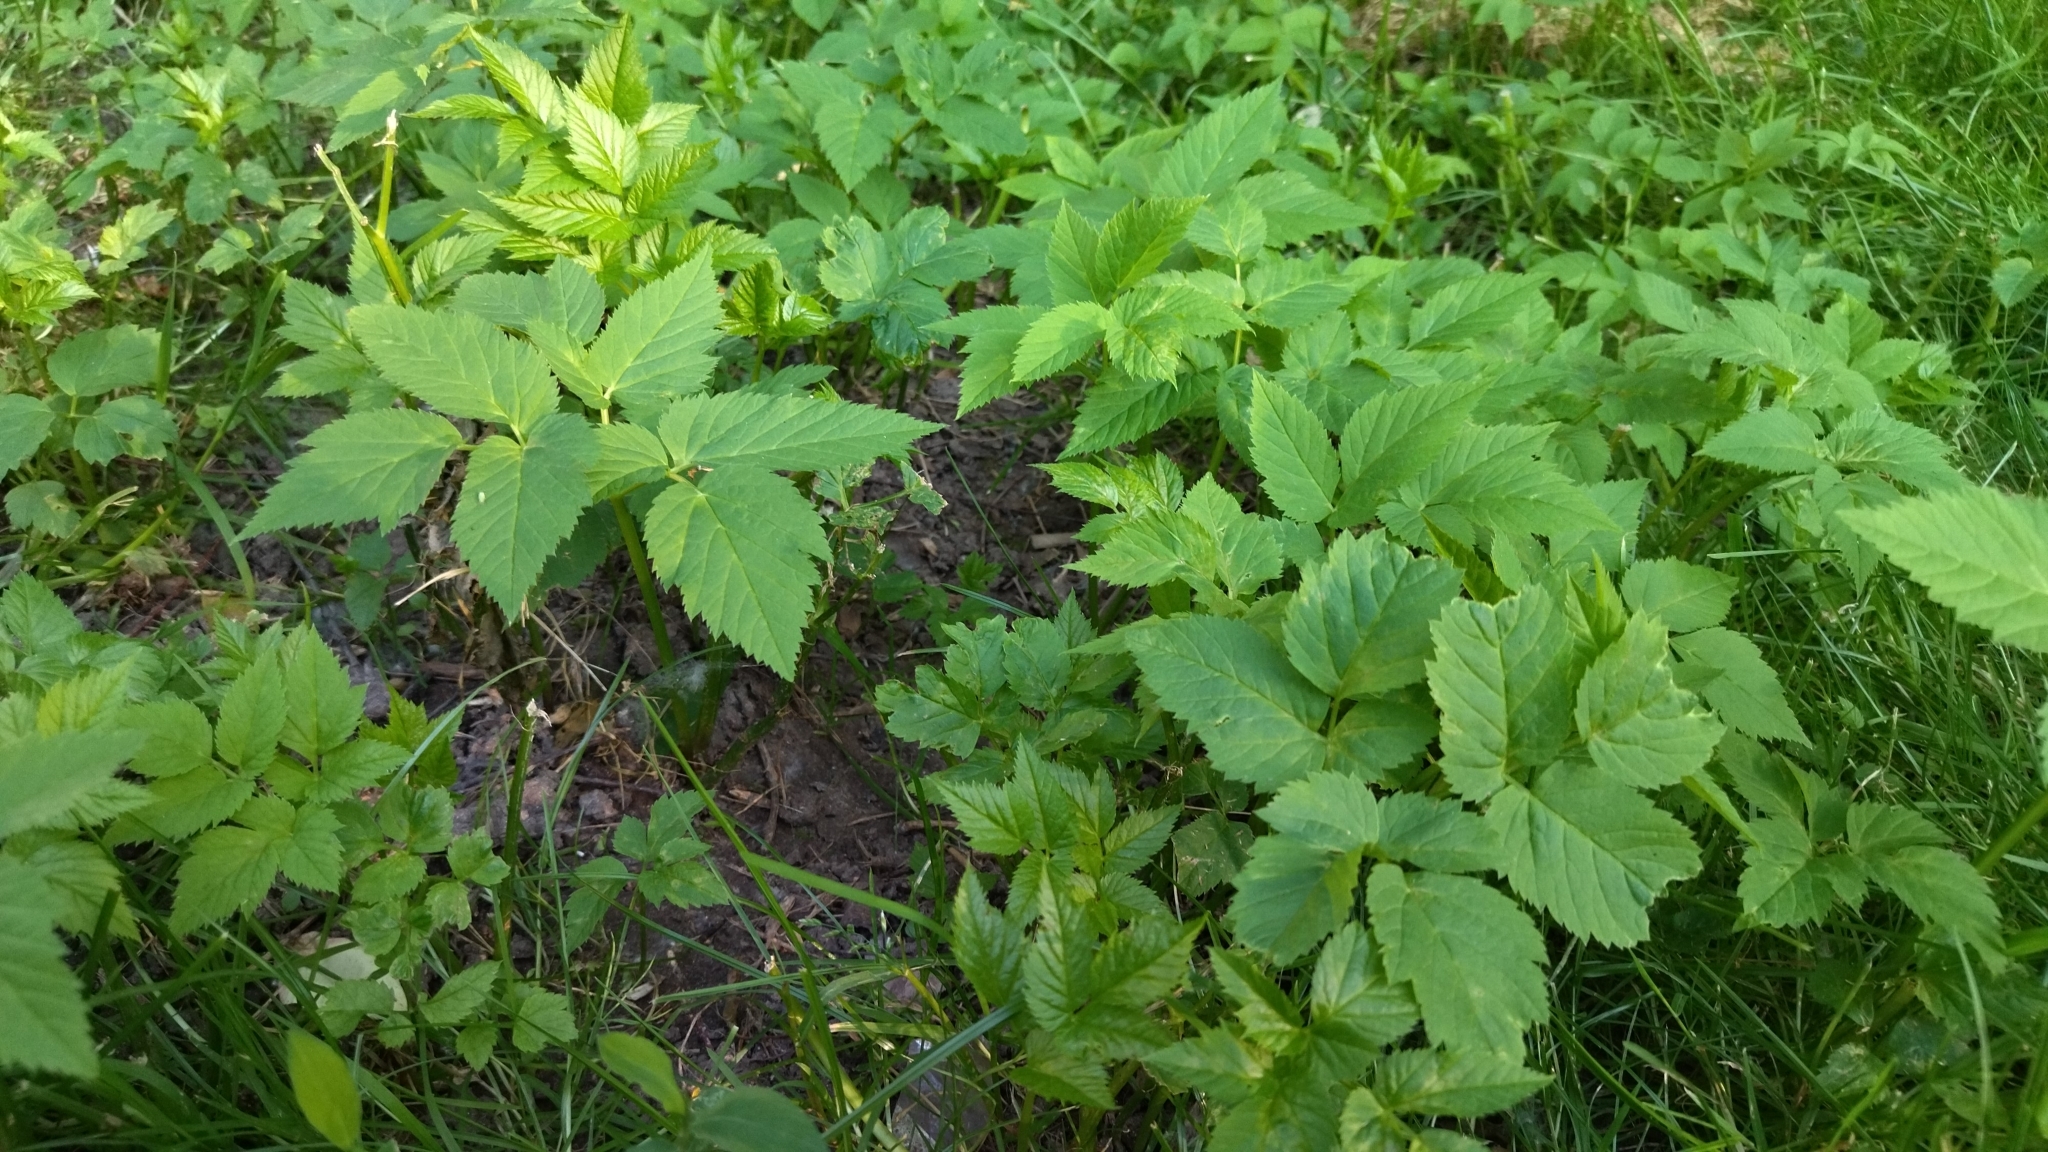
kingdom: Plantae
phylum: Tracheophyta
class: Magnoliopsida
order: Apiales
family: Apiaceae
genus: Aegopodium
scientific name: Aegopodium podagraria
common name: Ground-elder
